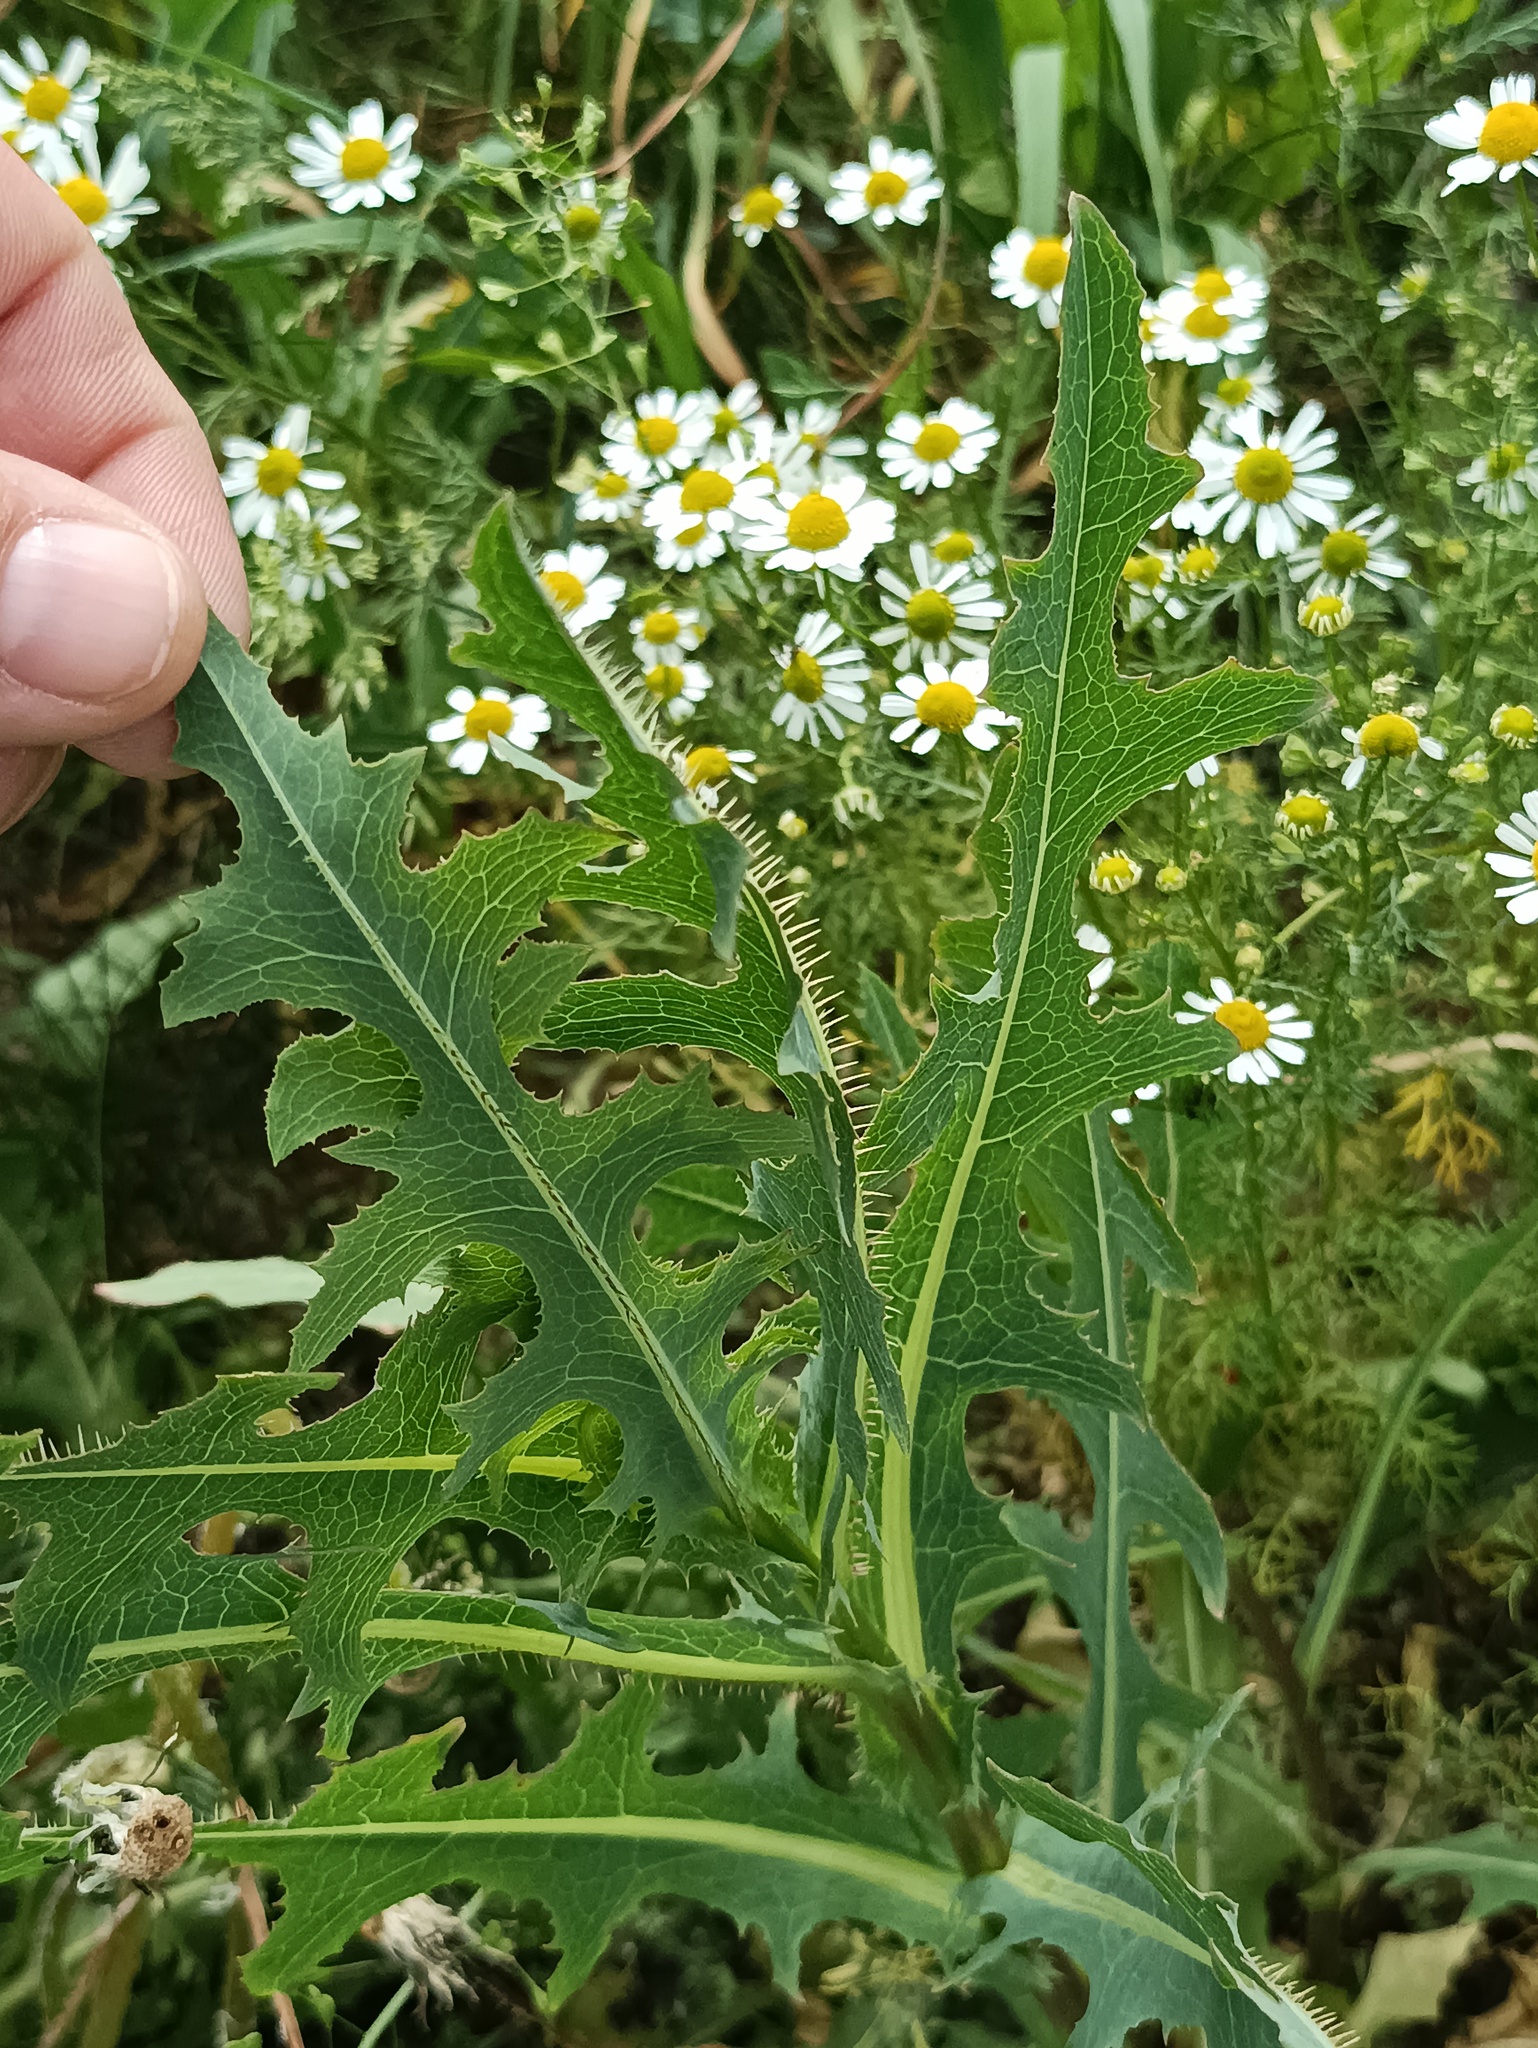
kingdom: Plantae
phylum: Tracheophyta
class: Magnoliopsida
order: Asterales
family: Asteraceae
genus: Lactuca
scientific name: Lactuca serriola
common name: Prickly lettuce
